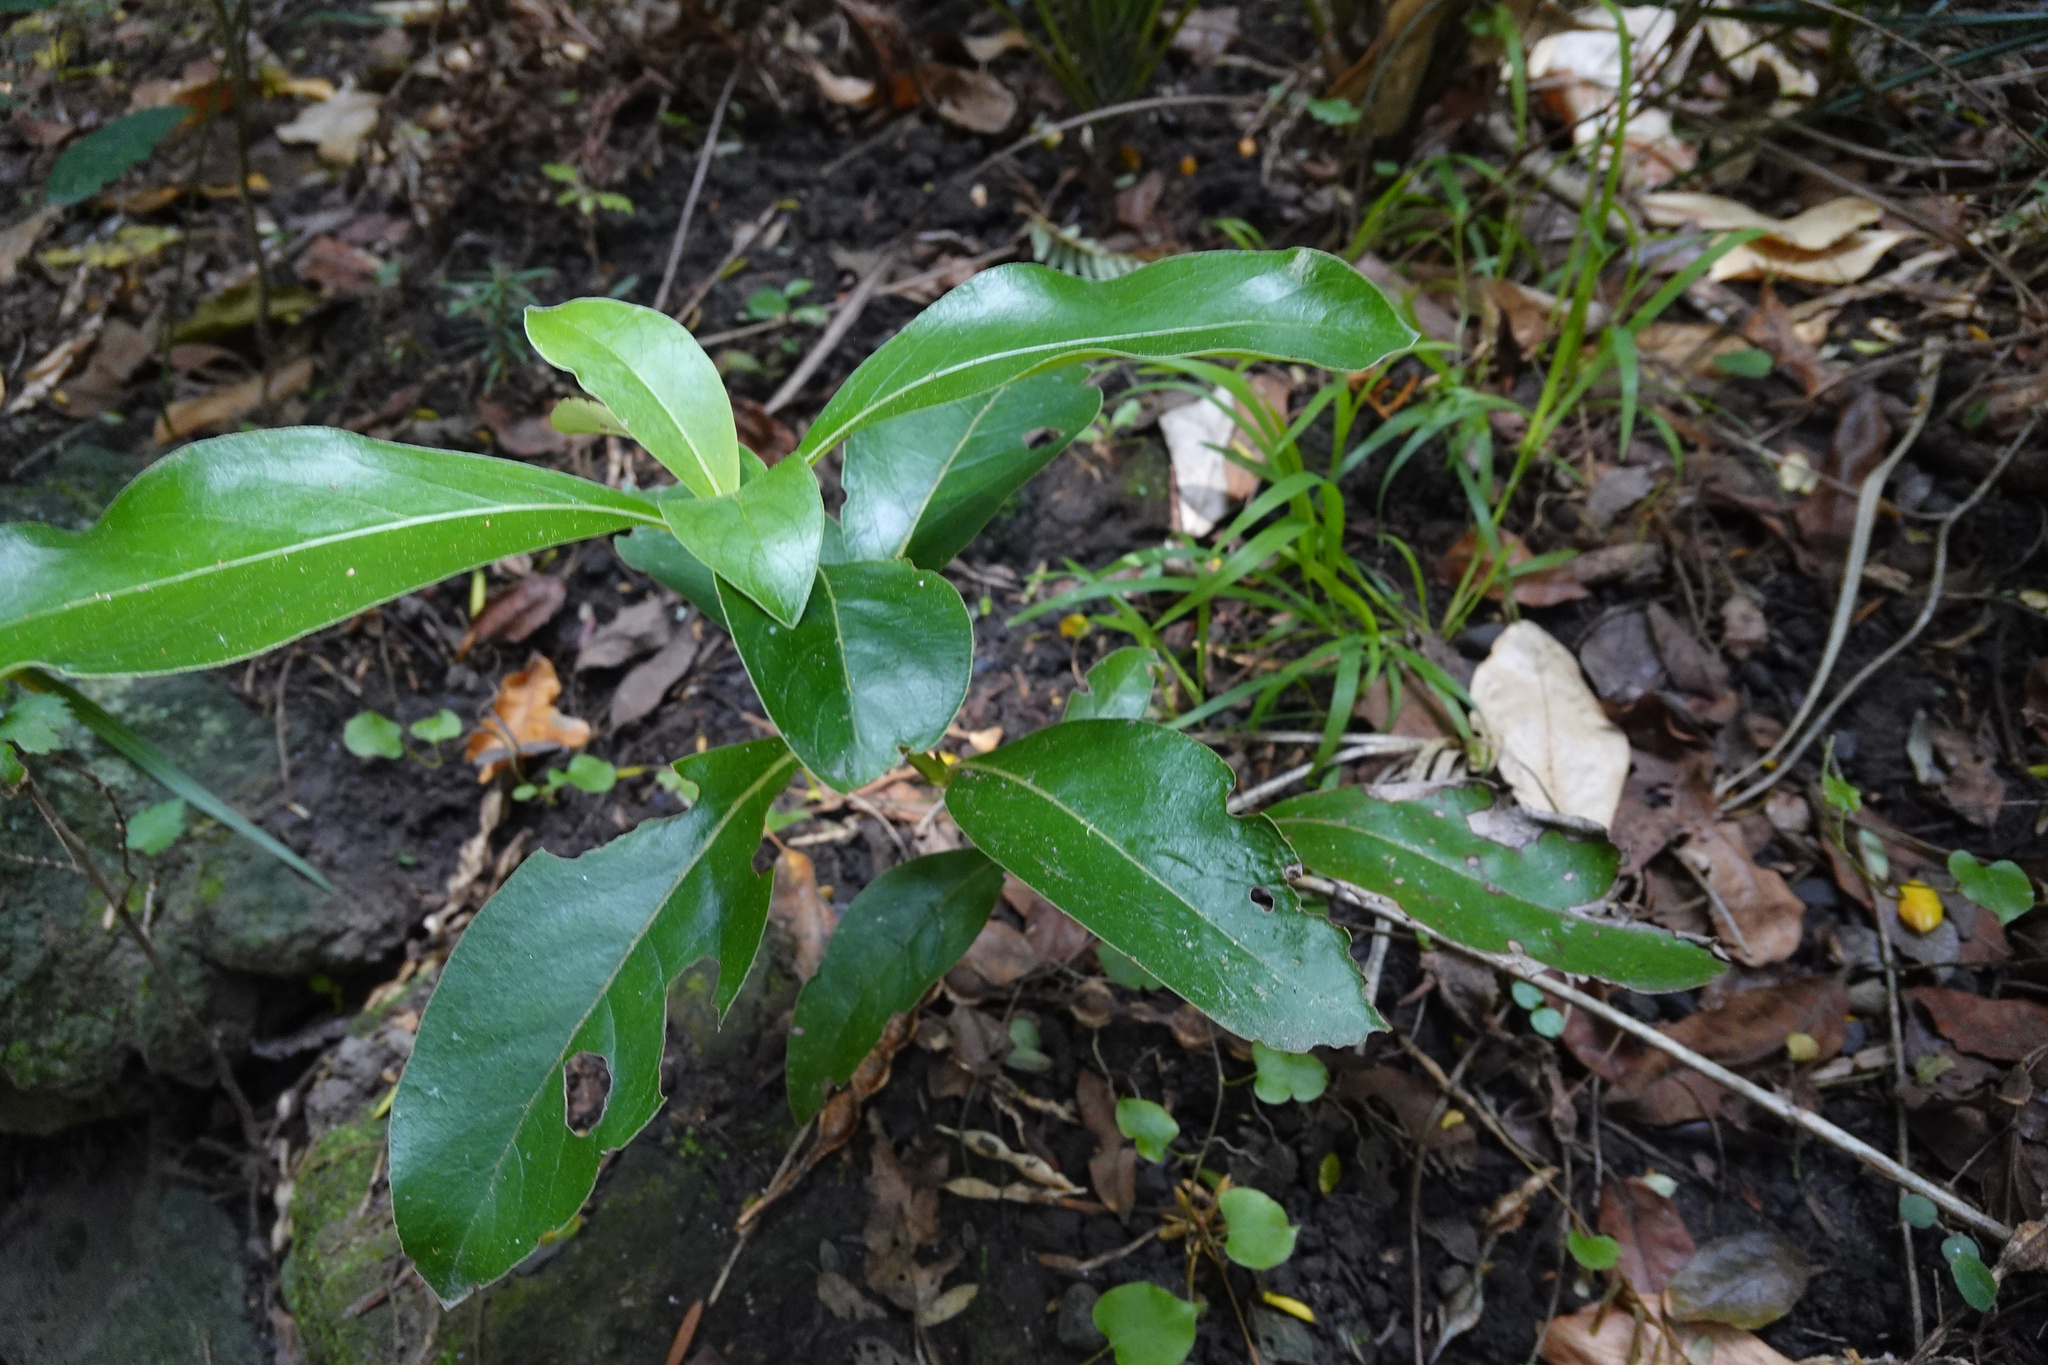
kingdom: Plantae
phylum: Tracheophyta
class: Magnoliopsida
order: Gentianales
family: Rubiaceae
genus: Coprosma
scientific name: Coprosma robusta
